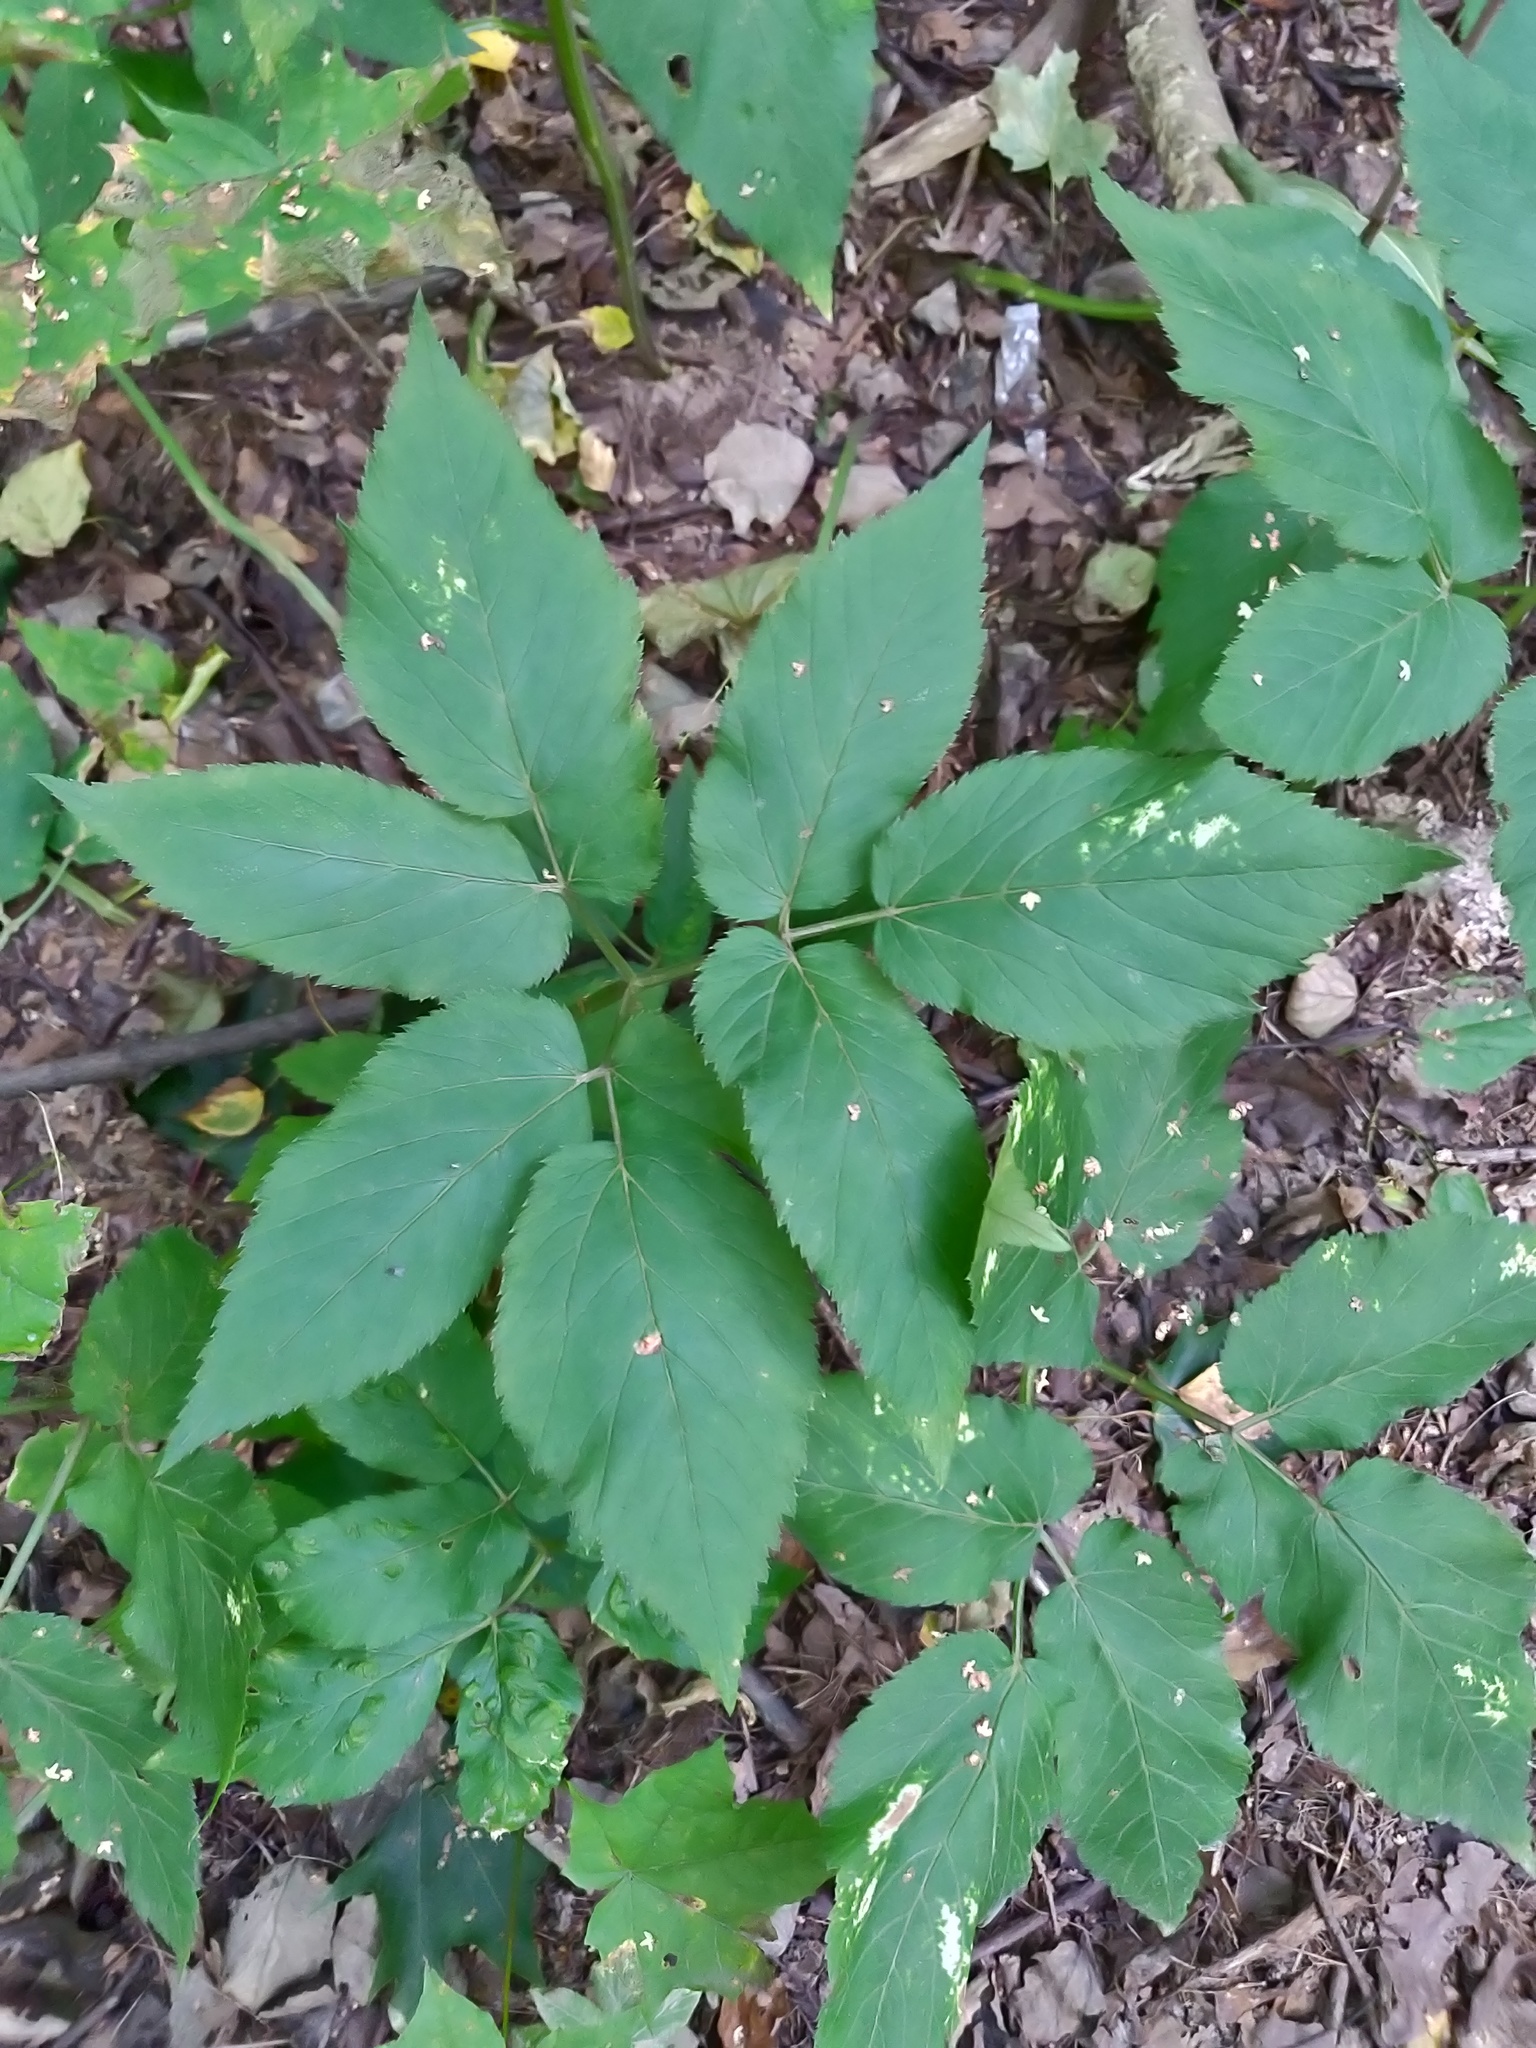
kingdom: Plantae
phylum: Tracheophyta
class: Magnoliopsida
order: Apiales
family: Apiaceae
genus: Aegopodium
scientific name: Aegopodium podagraria
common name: Ground-elder
